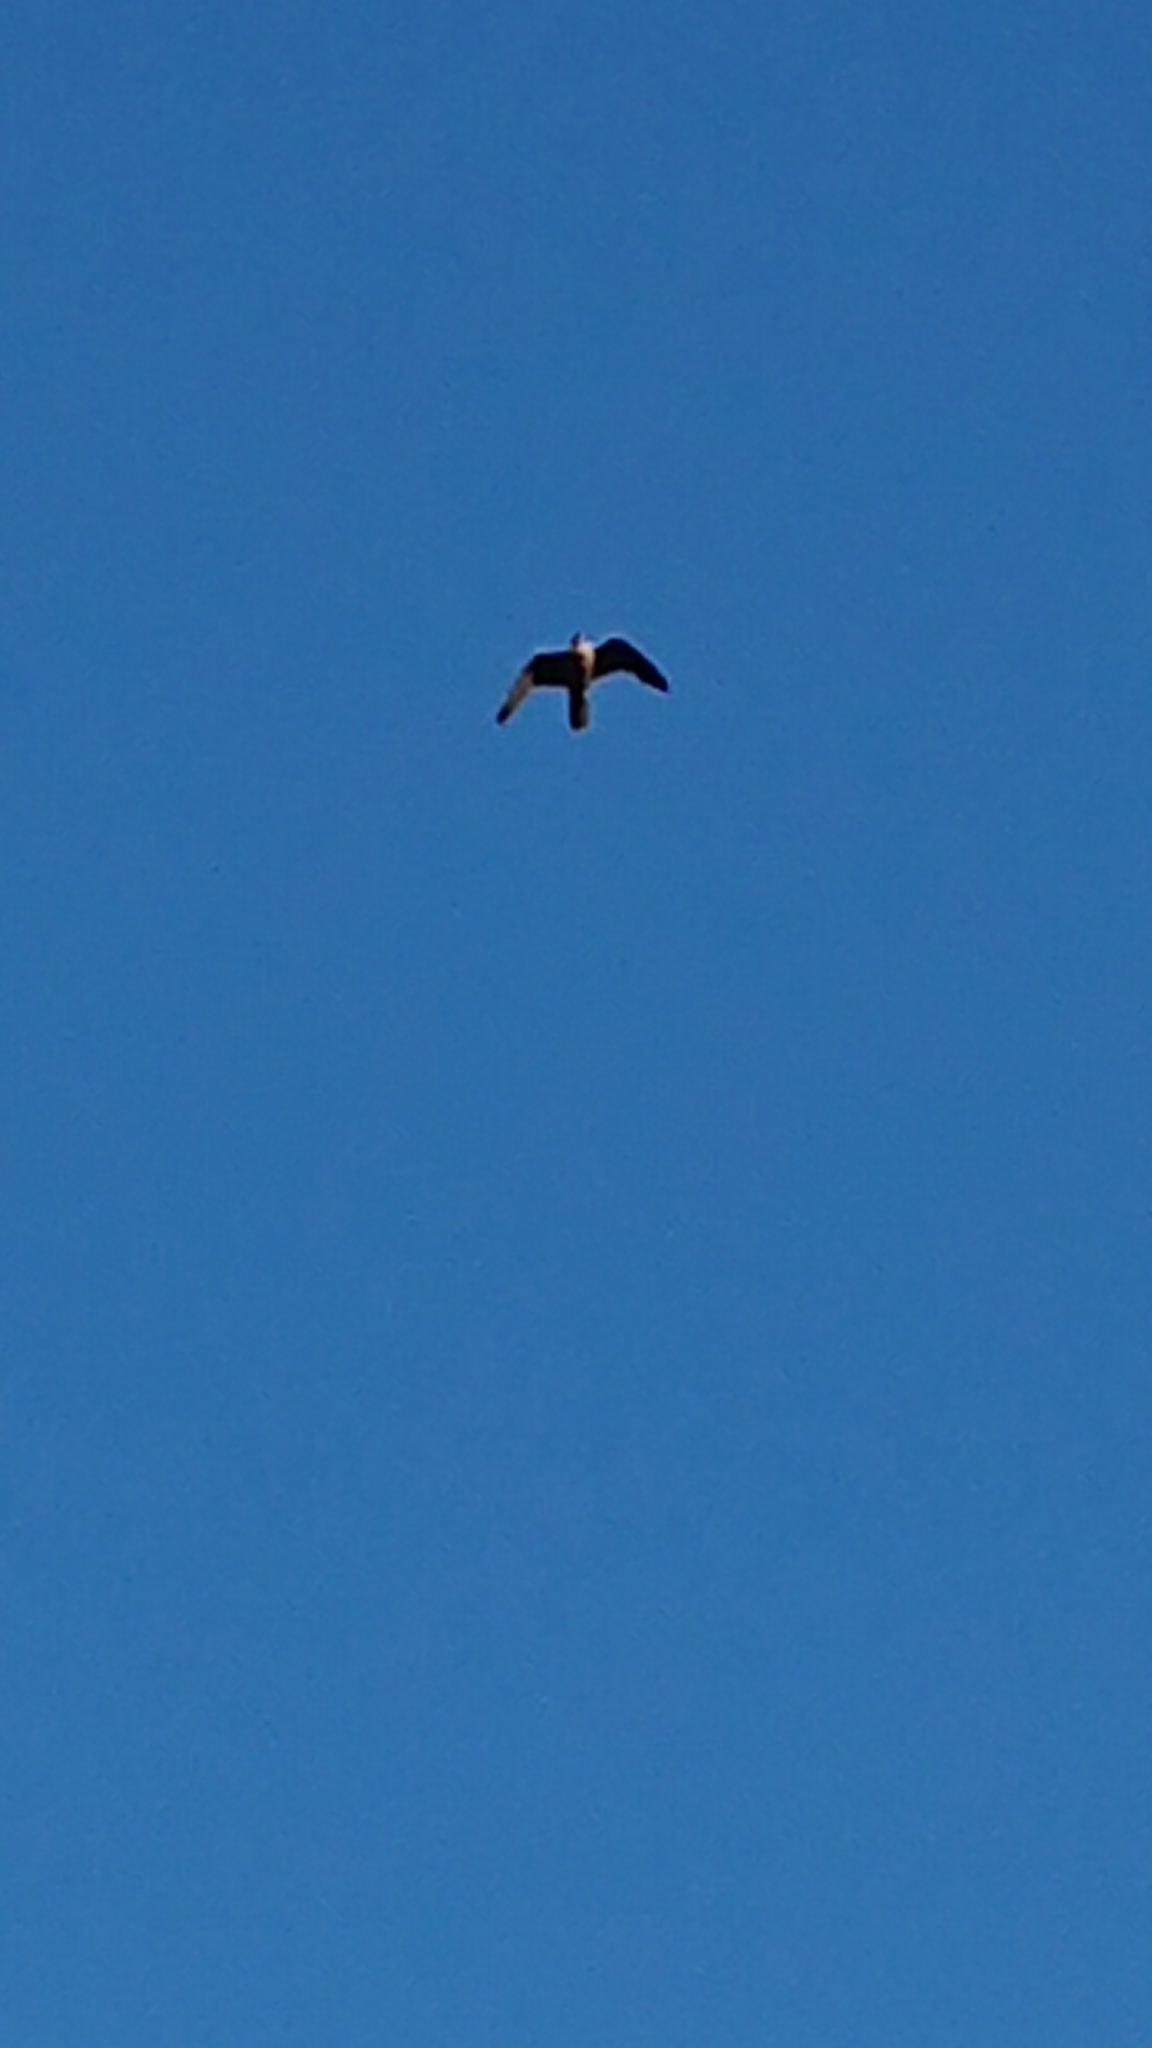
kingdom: Animalia
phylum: Chordata
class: Aves
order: Falconiformes
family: Falconidae
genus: Falco
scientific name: Falco peregrinus
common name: Peregrine falcon
